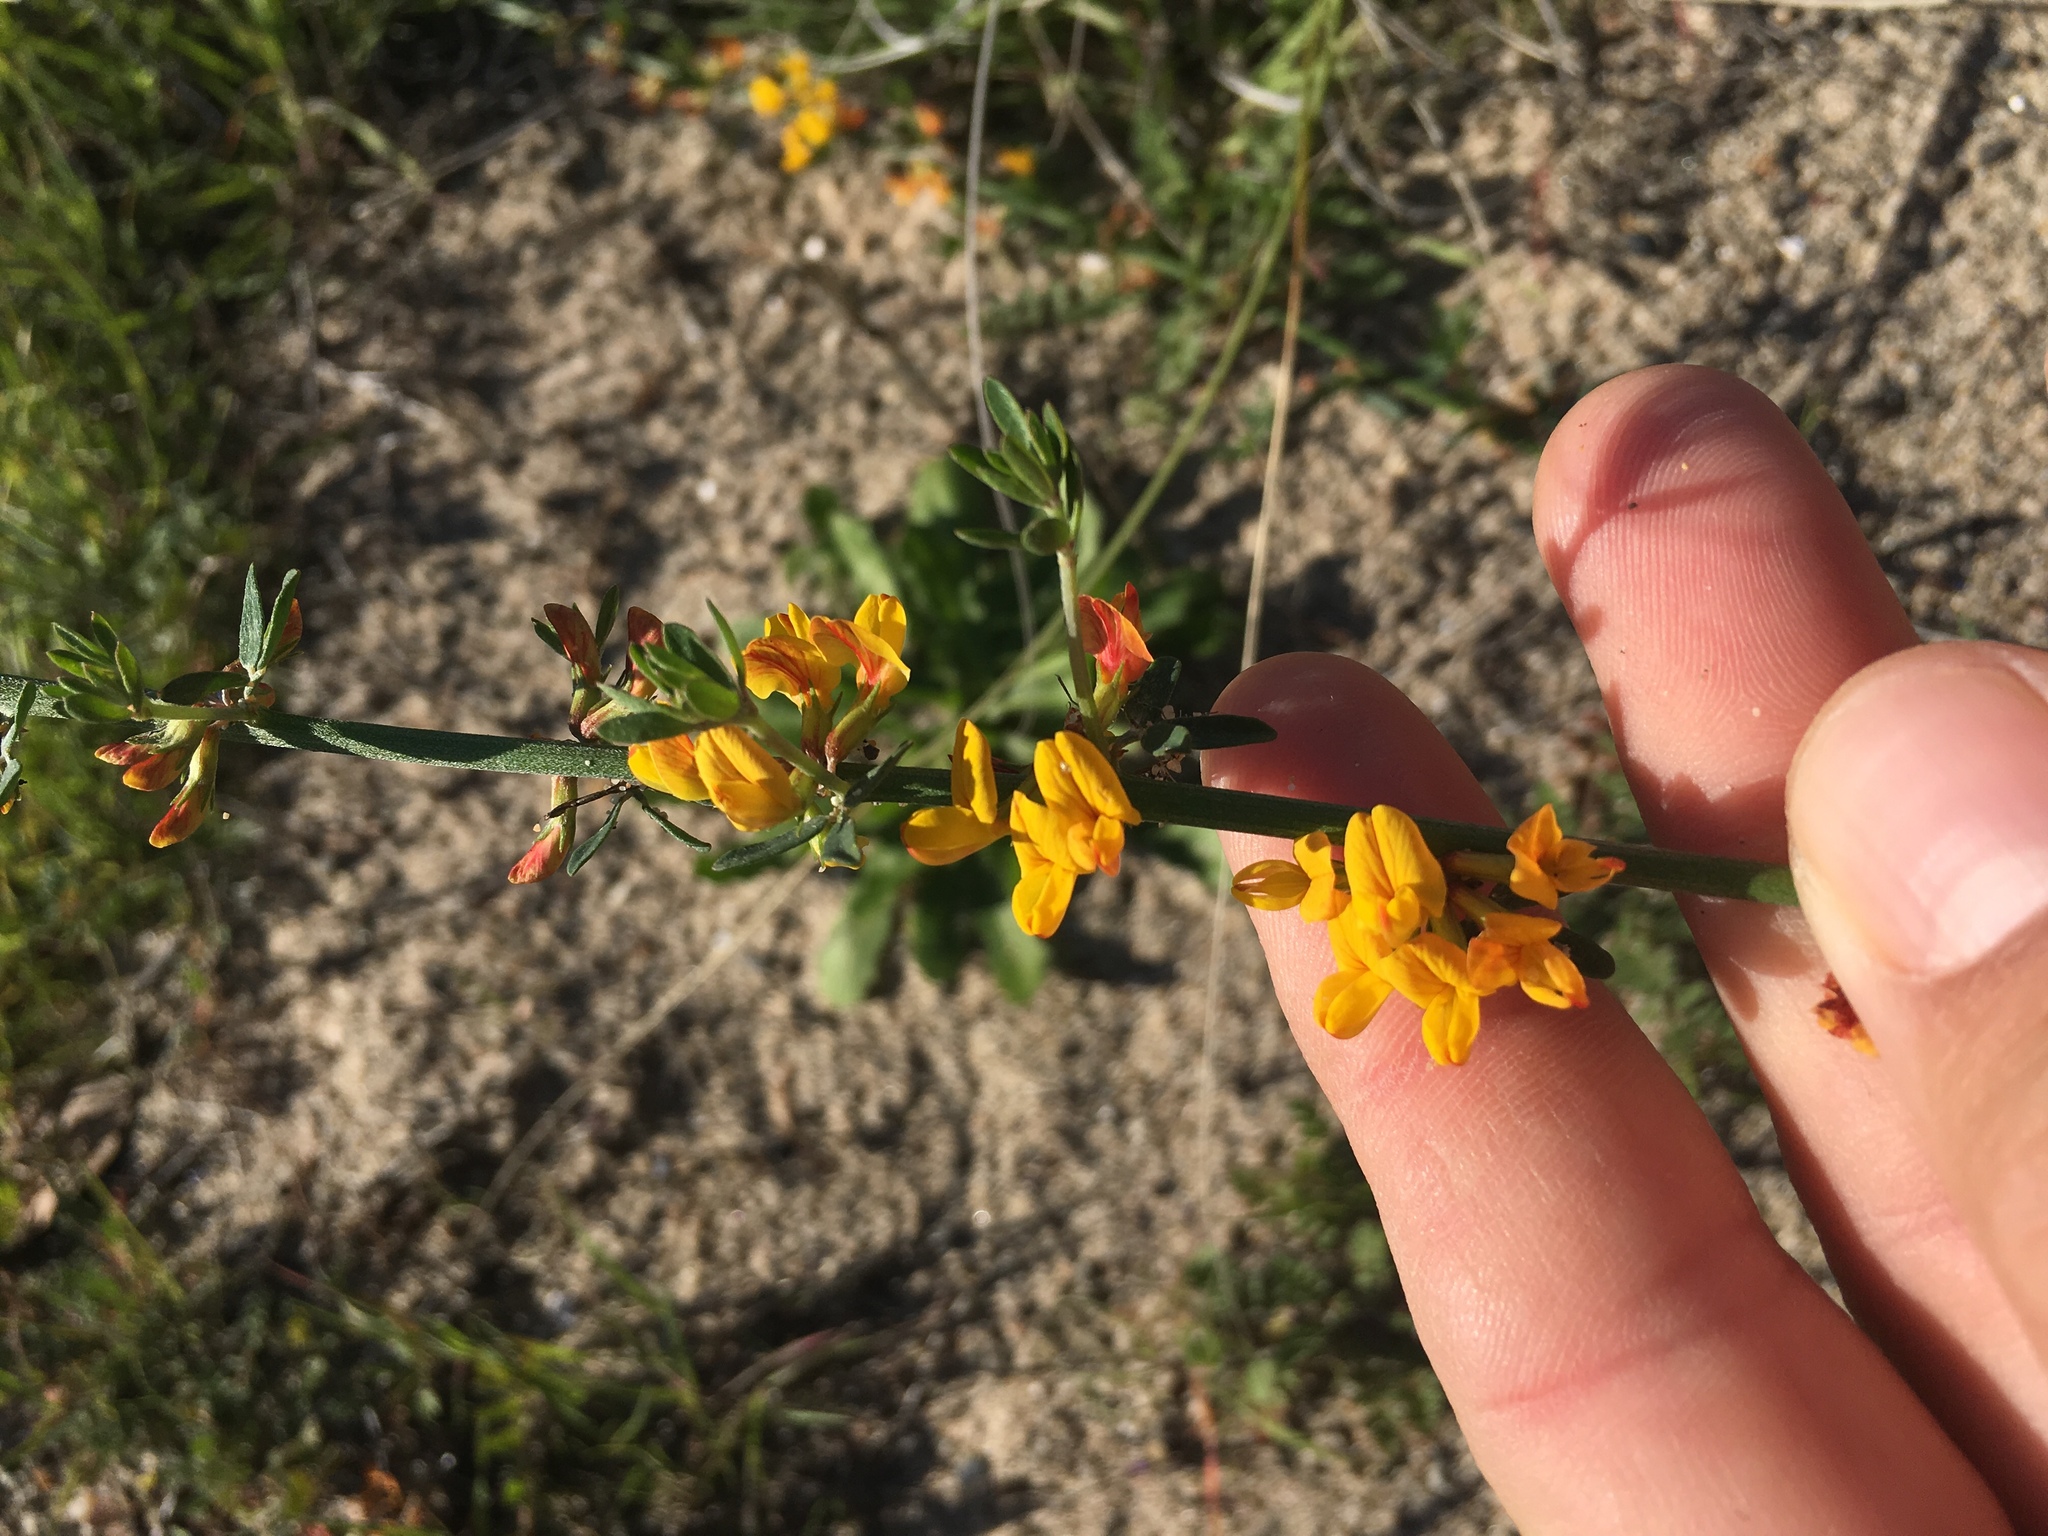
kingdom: Plantae
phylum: Tracheophyta
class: Magnoliopsida
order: Fabales
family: Fabaceae
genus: Acmispon
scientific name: Acmispon glaber
